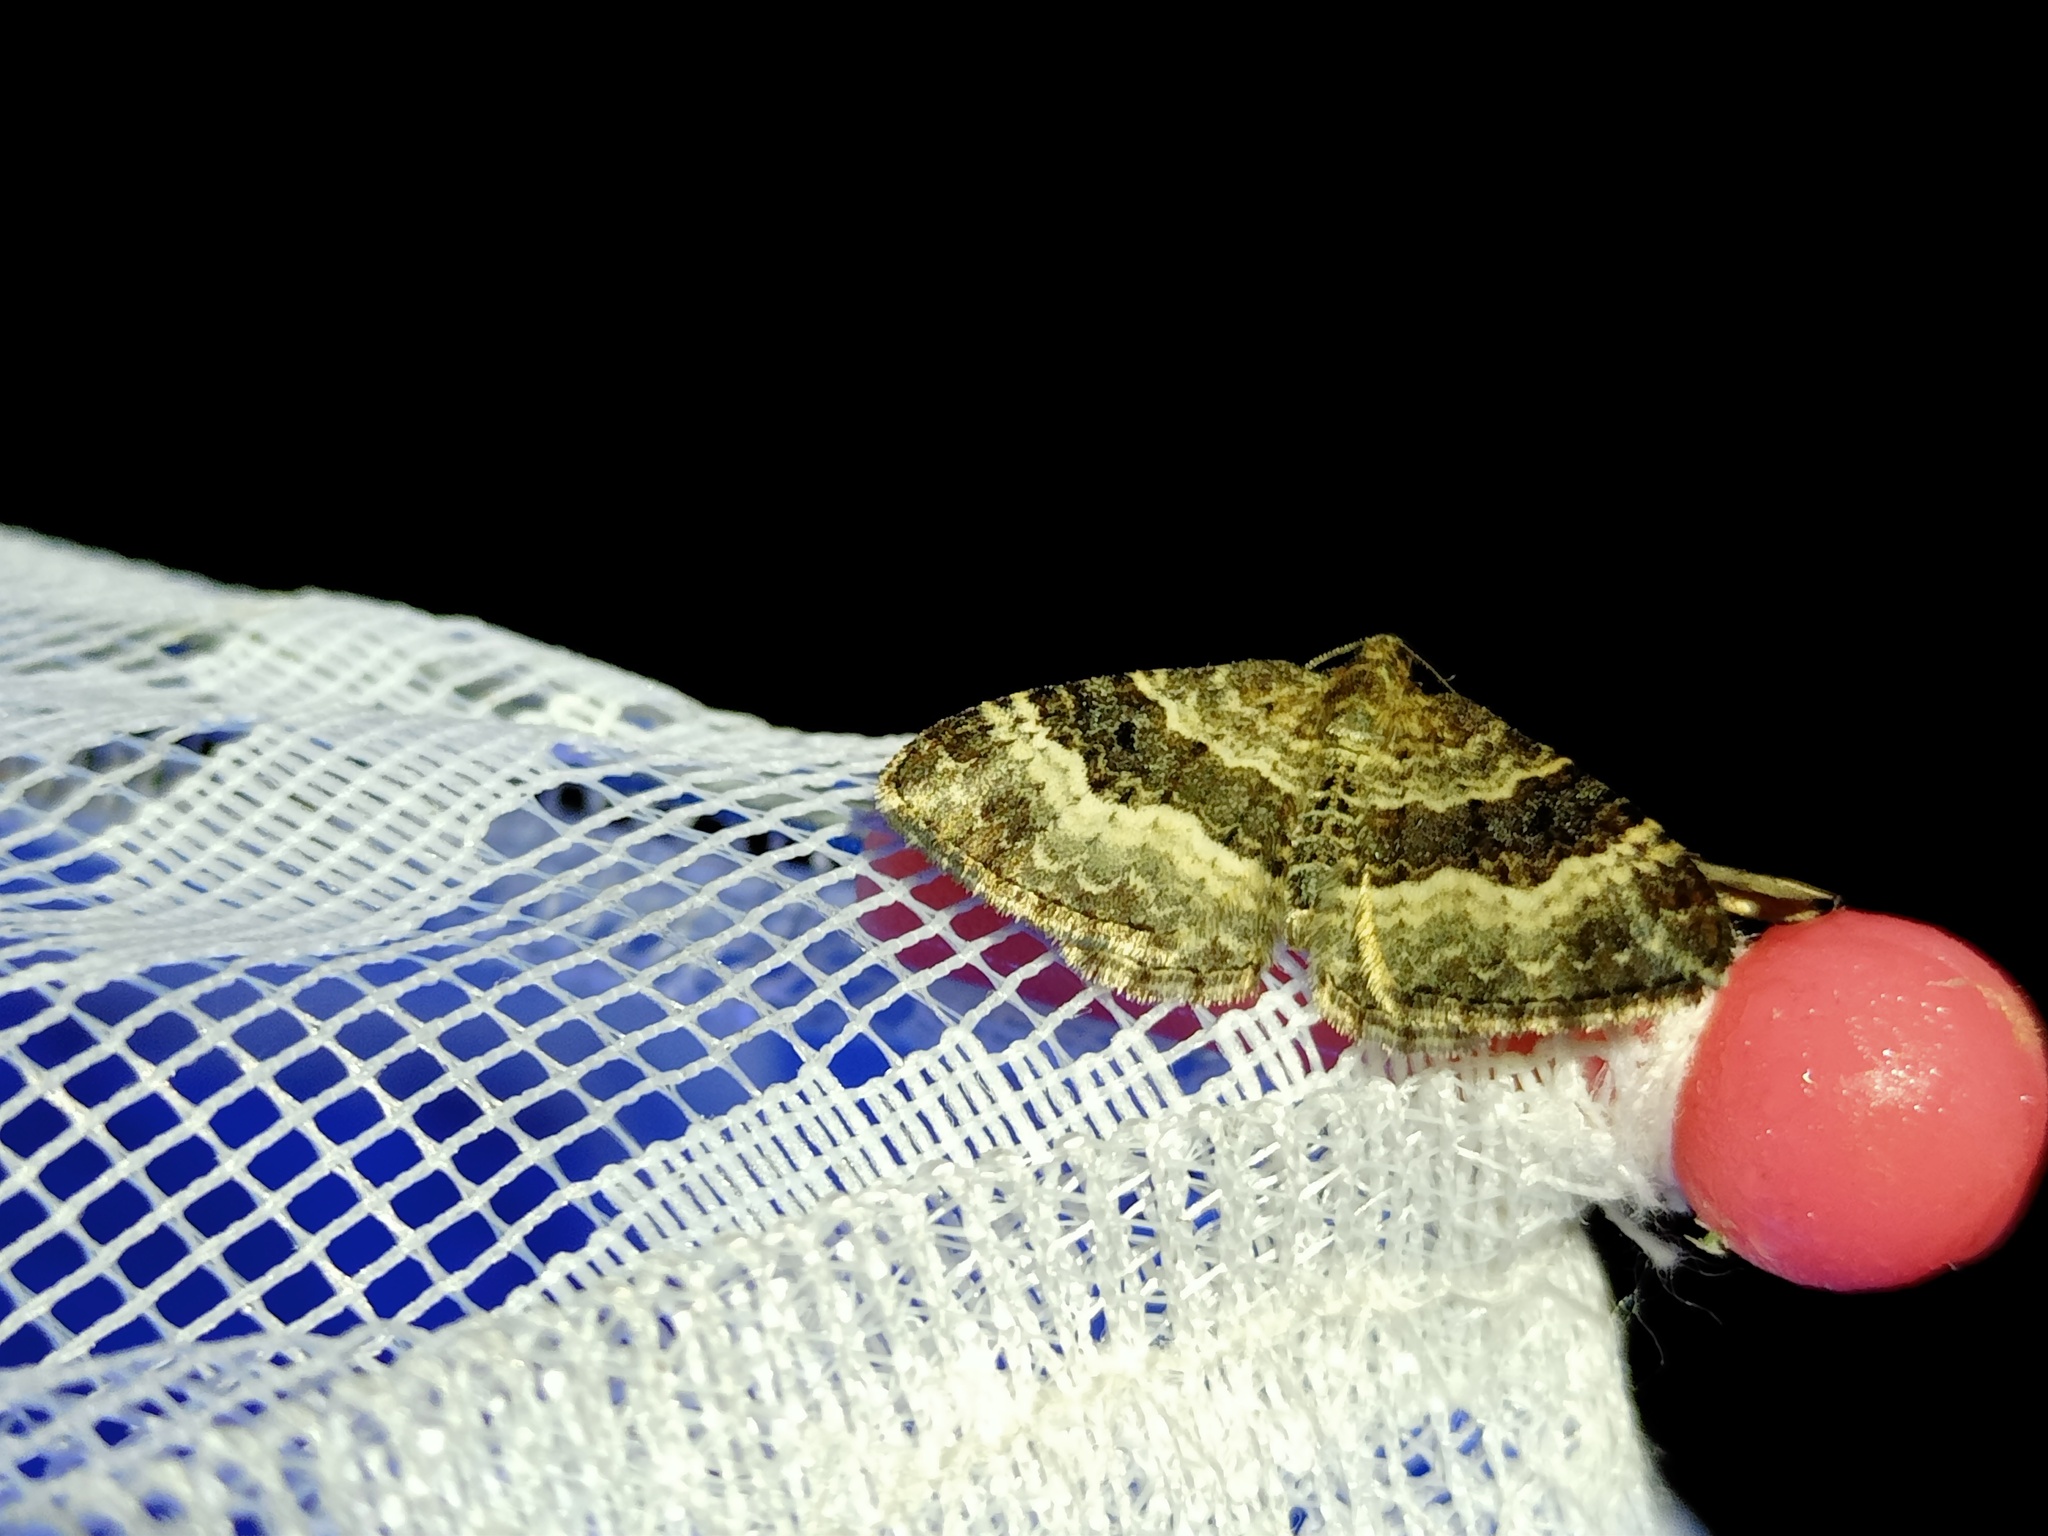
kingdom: Animalia
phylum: Arthropoda
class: Insecta
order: Lepidoptera
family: Geometridae
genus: Epirrhoe
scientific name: Epirrhoe alternata
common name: Common carpet
